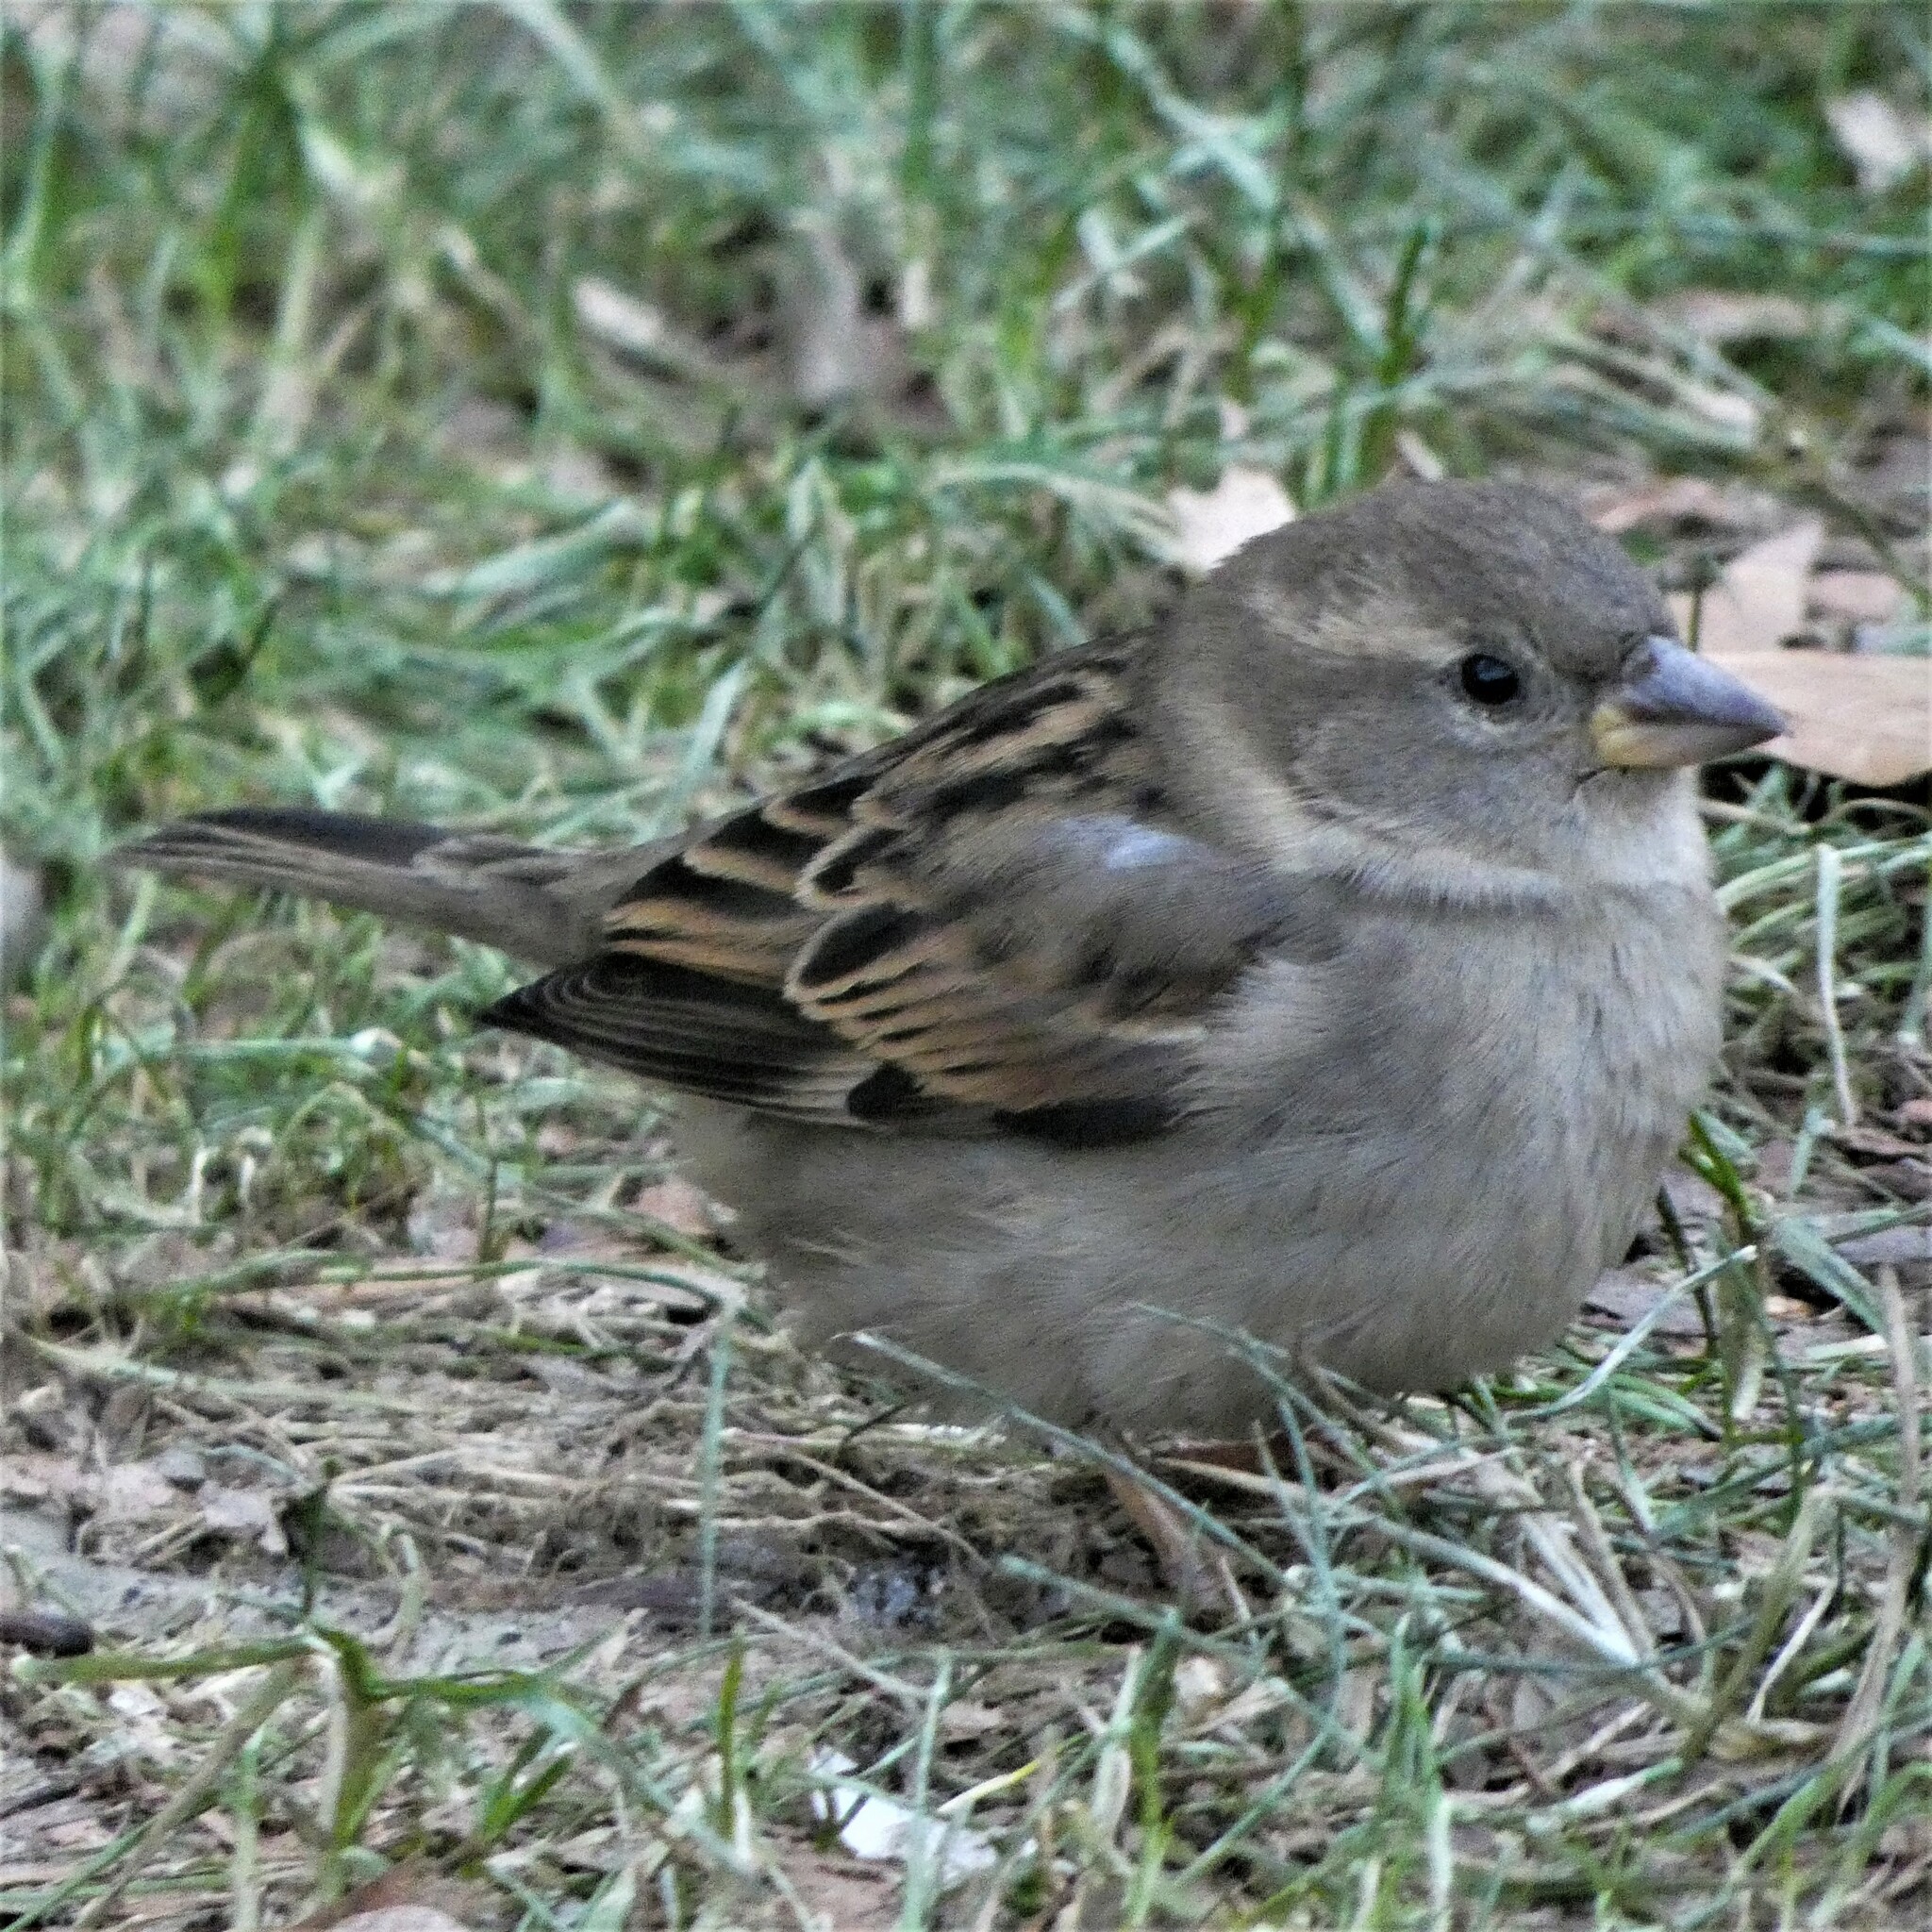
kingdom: Animalia
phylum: Chordata
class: Aves
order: Passeriformes
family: Passeridae
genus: Passer
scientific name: Passer domesticus
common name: House sparrow
